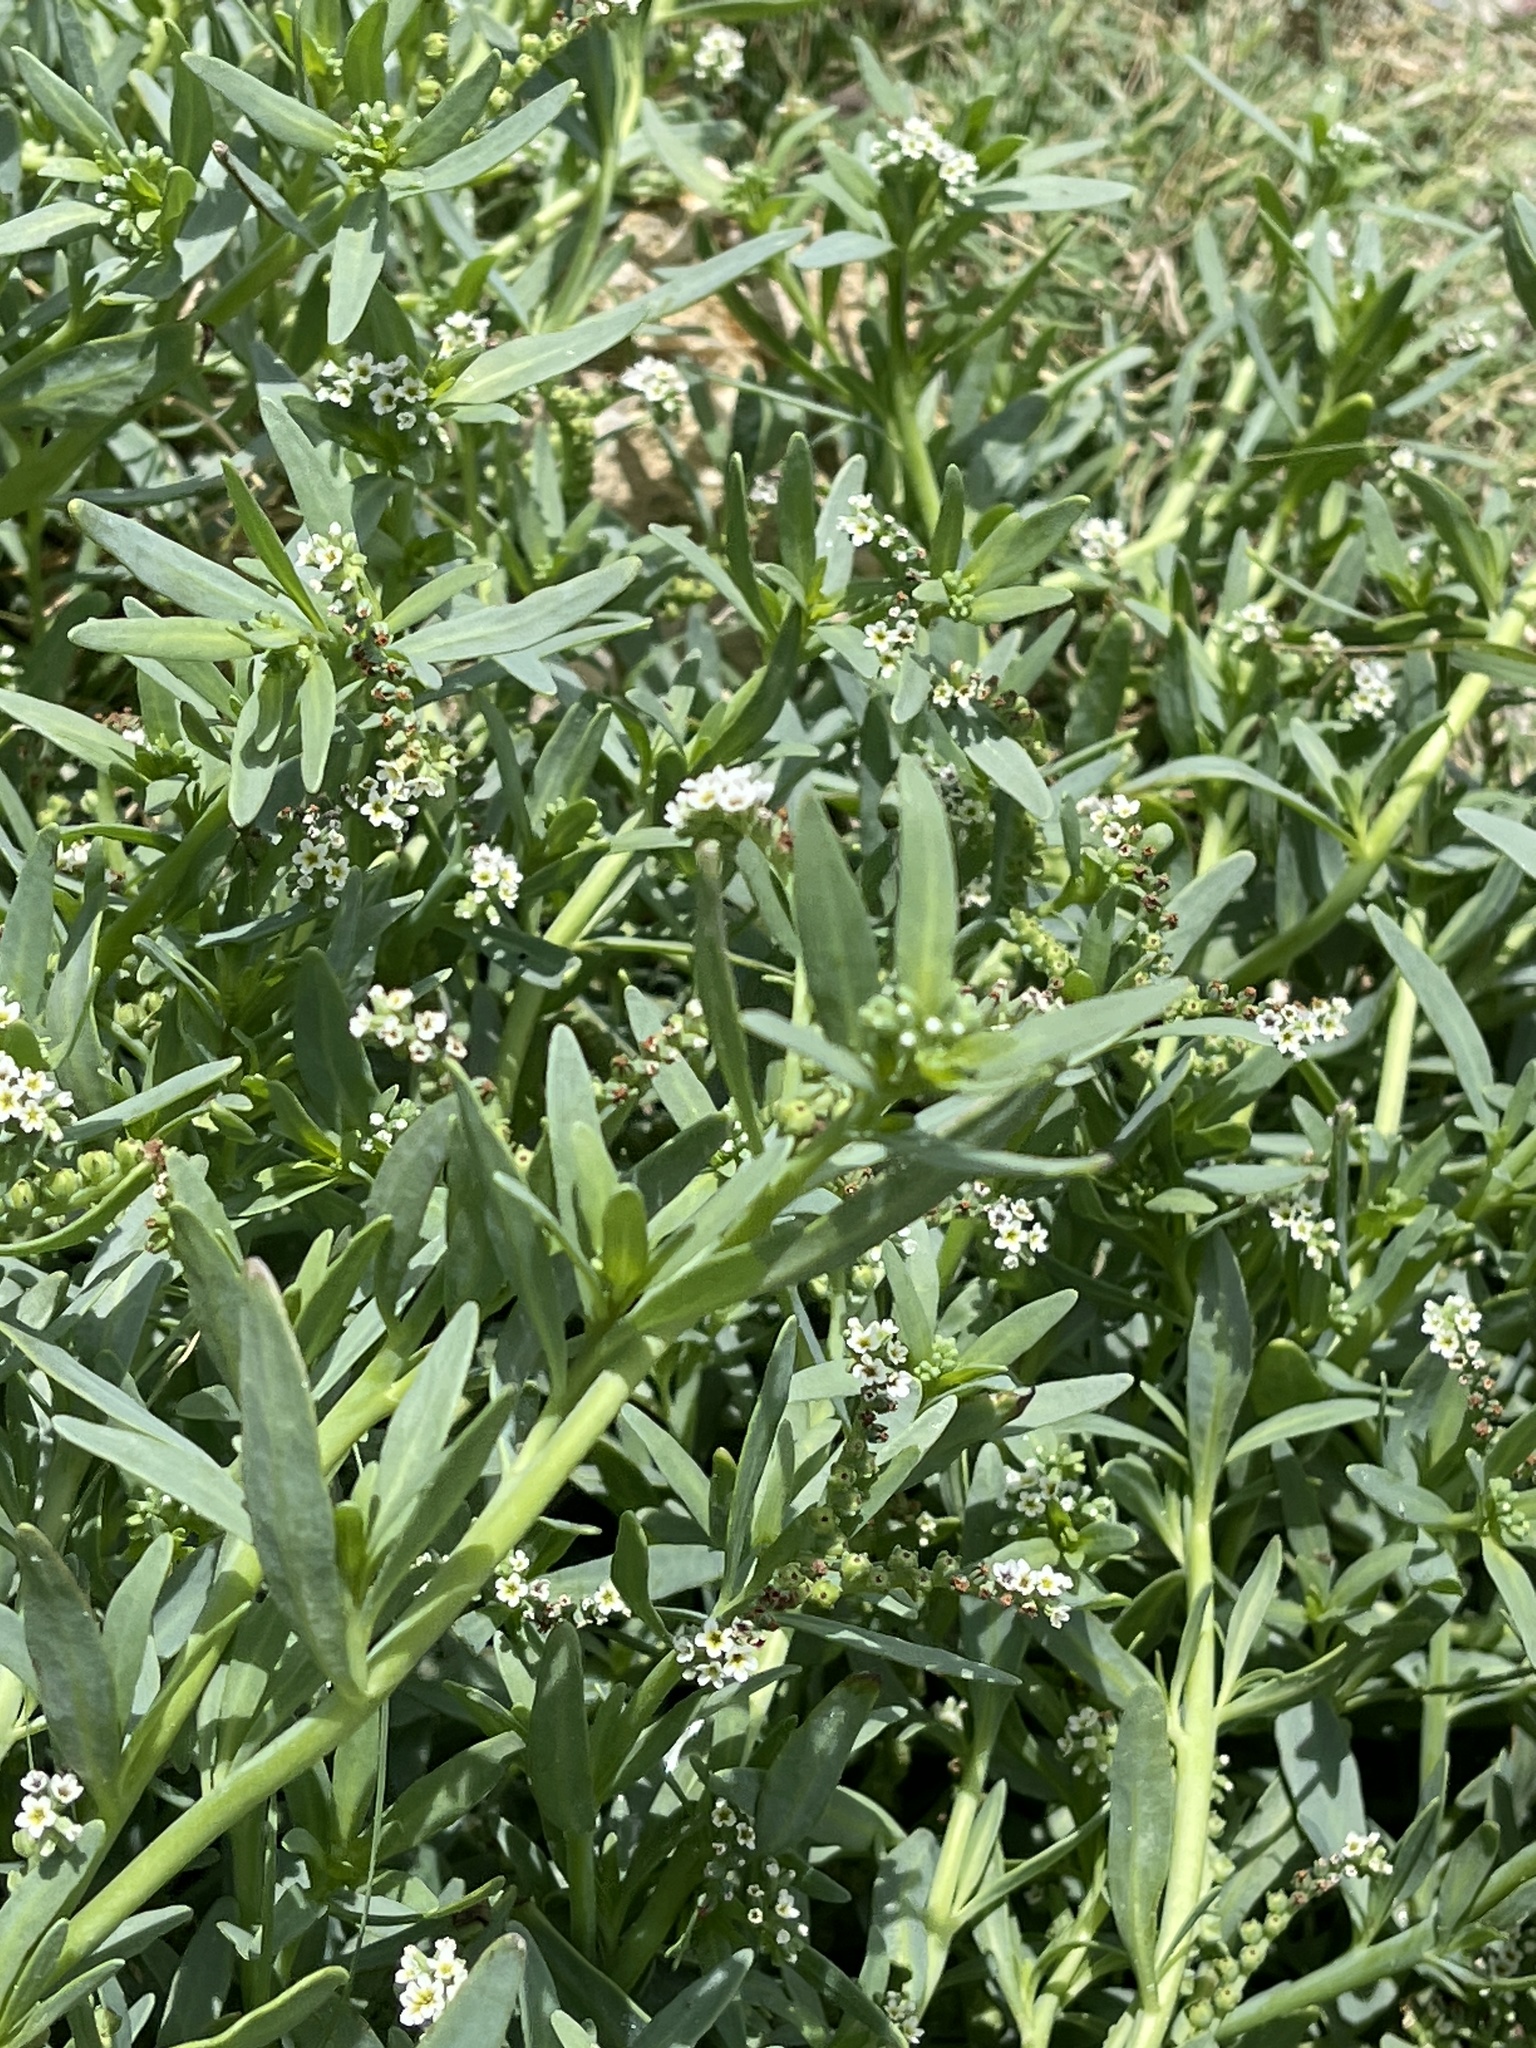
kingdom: Plantae
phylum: Tracheophyta
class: Magnoliopsida
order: Boraginales
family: Heliotropiaceae
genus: Heliotropium
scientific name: Heliotropium curassavicum
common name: Seaside heliotrope
